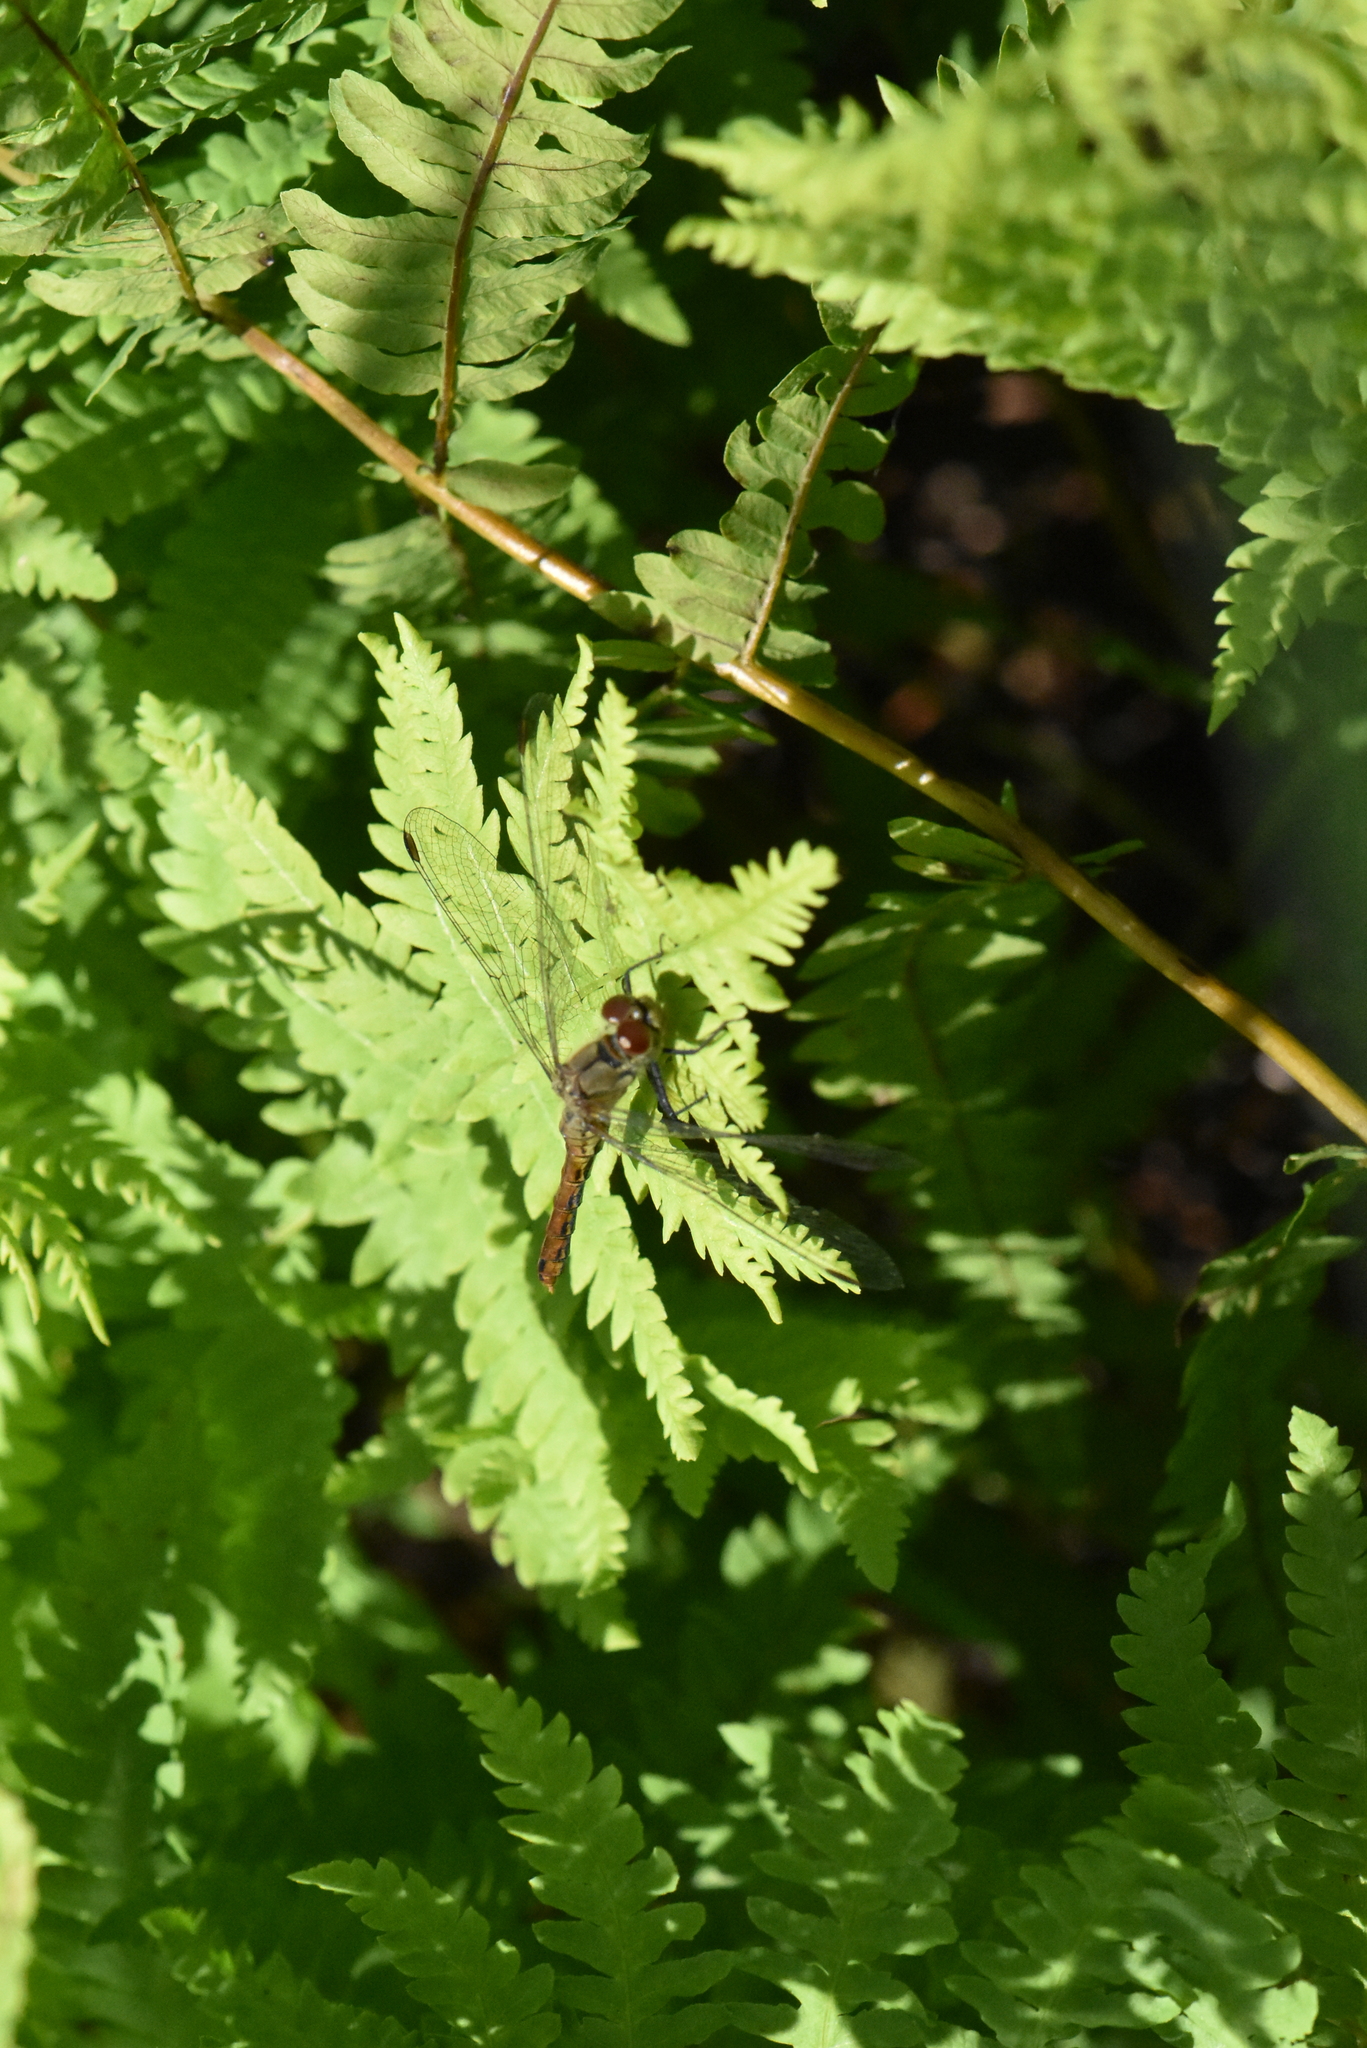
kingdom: Animalia
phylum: Arthropoda
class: Insecta
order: Odonata
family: Libellulidae
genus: Sympetrum
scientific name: Sympetrum sanguineum
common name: Ruddy darter
